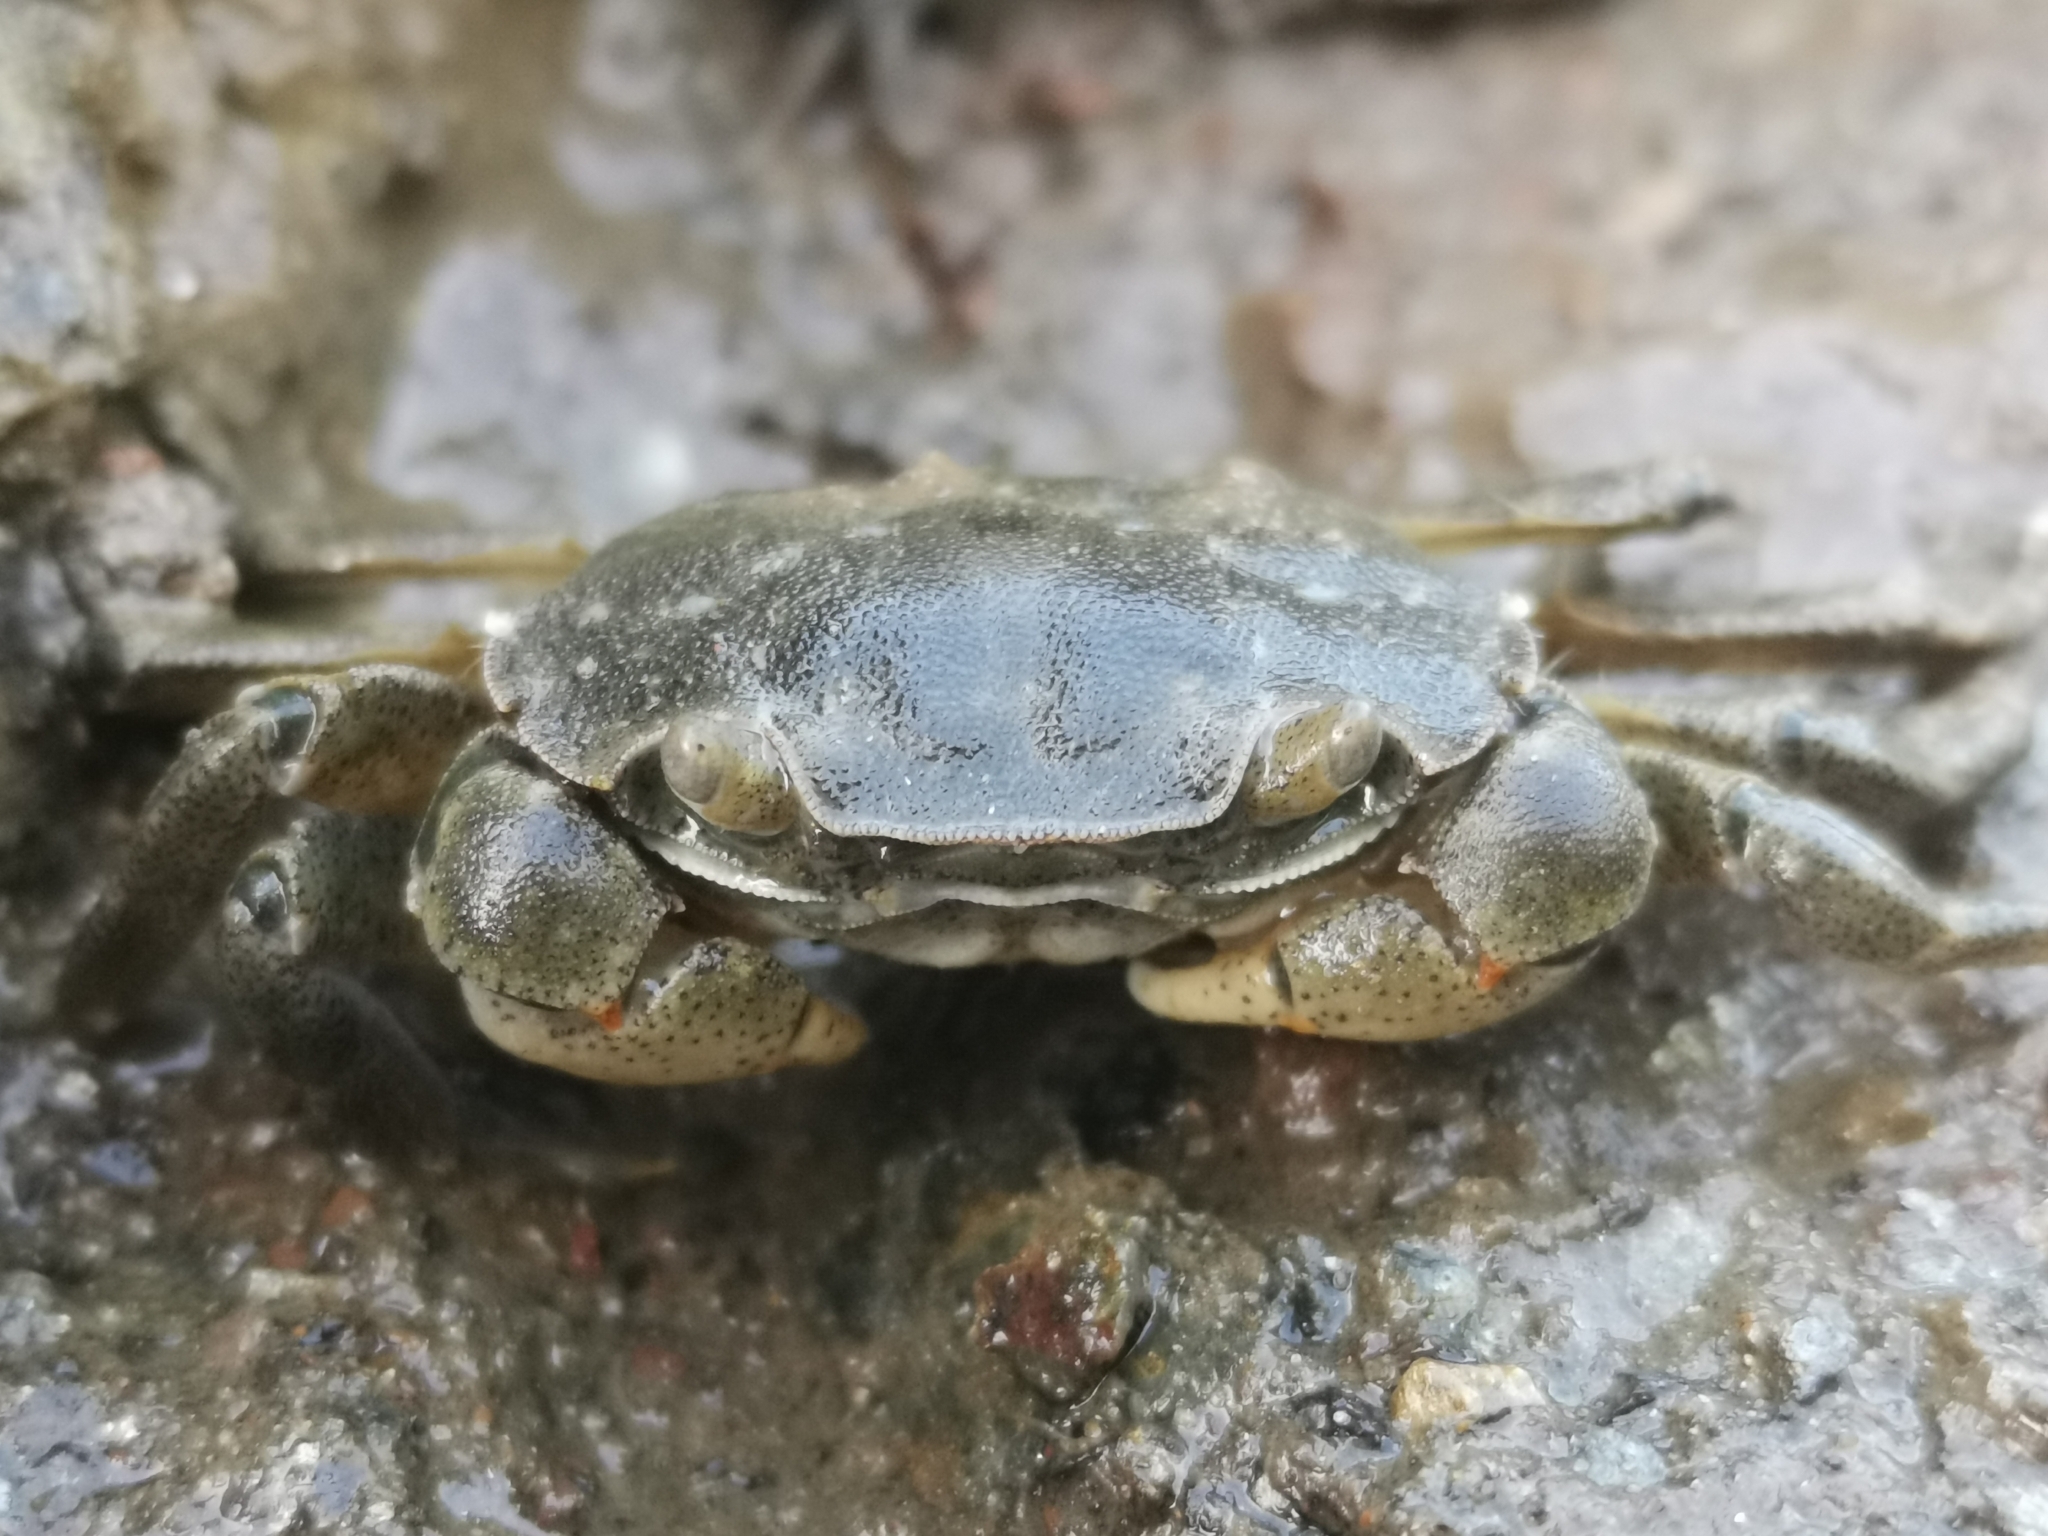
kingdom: Animalia
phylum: Arthropoda
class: Malacostraca
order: Decapoda
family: Varunidae
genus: Hemigrapsus
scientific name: Hemigrapsus crenulatus
